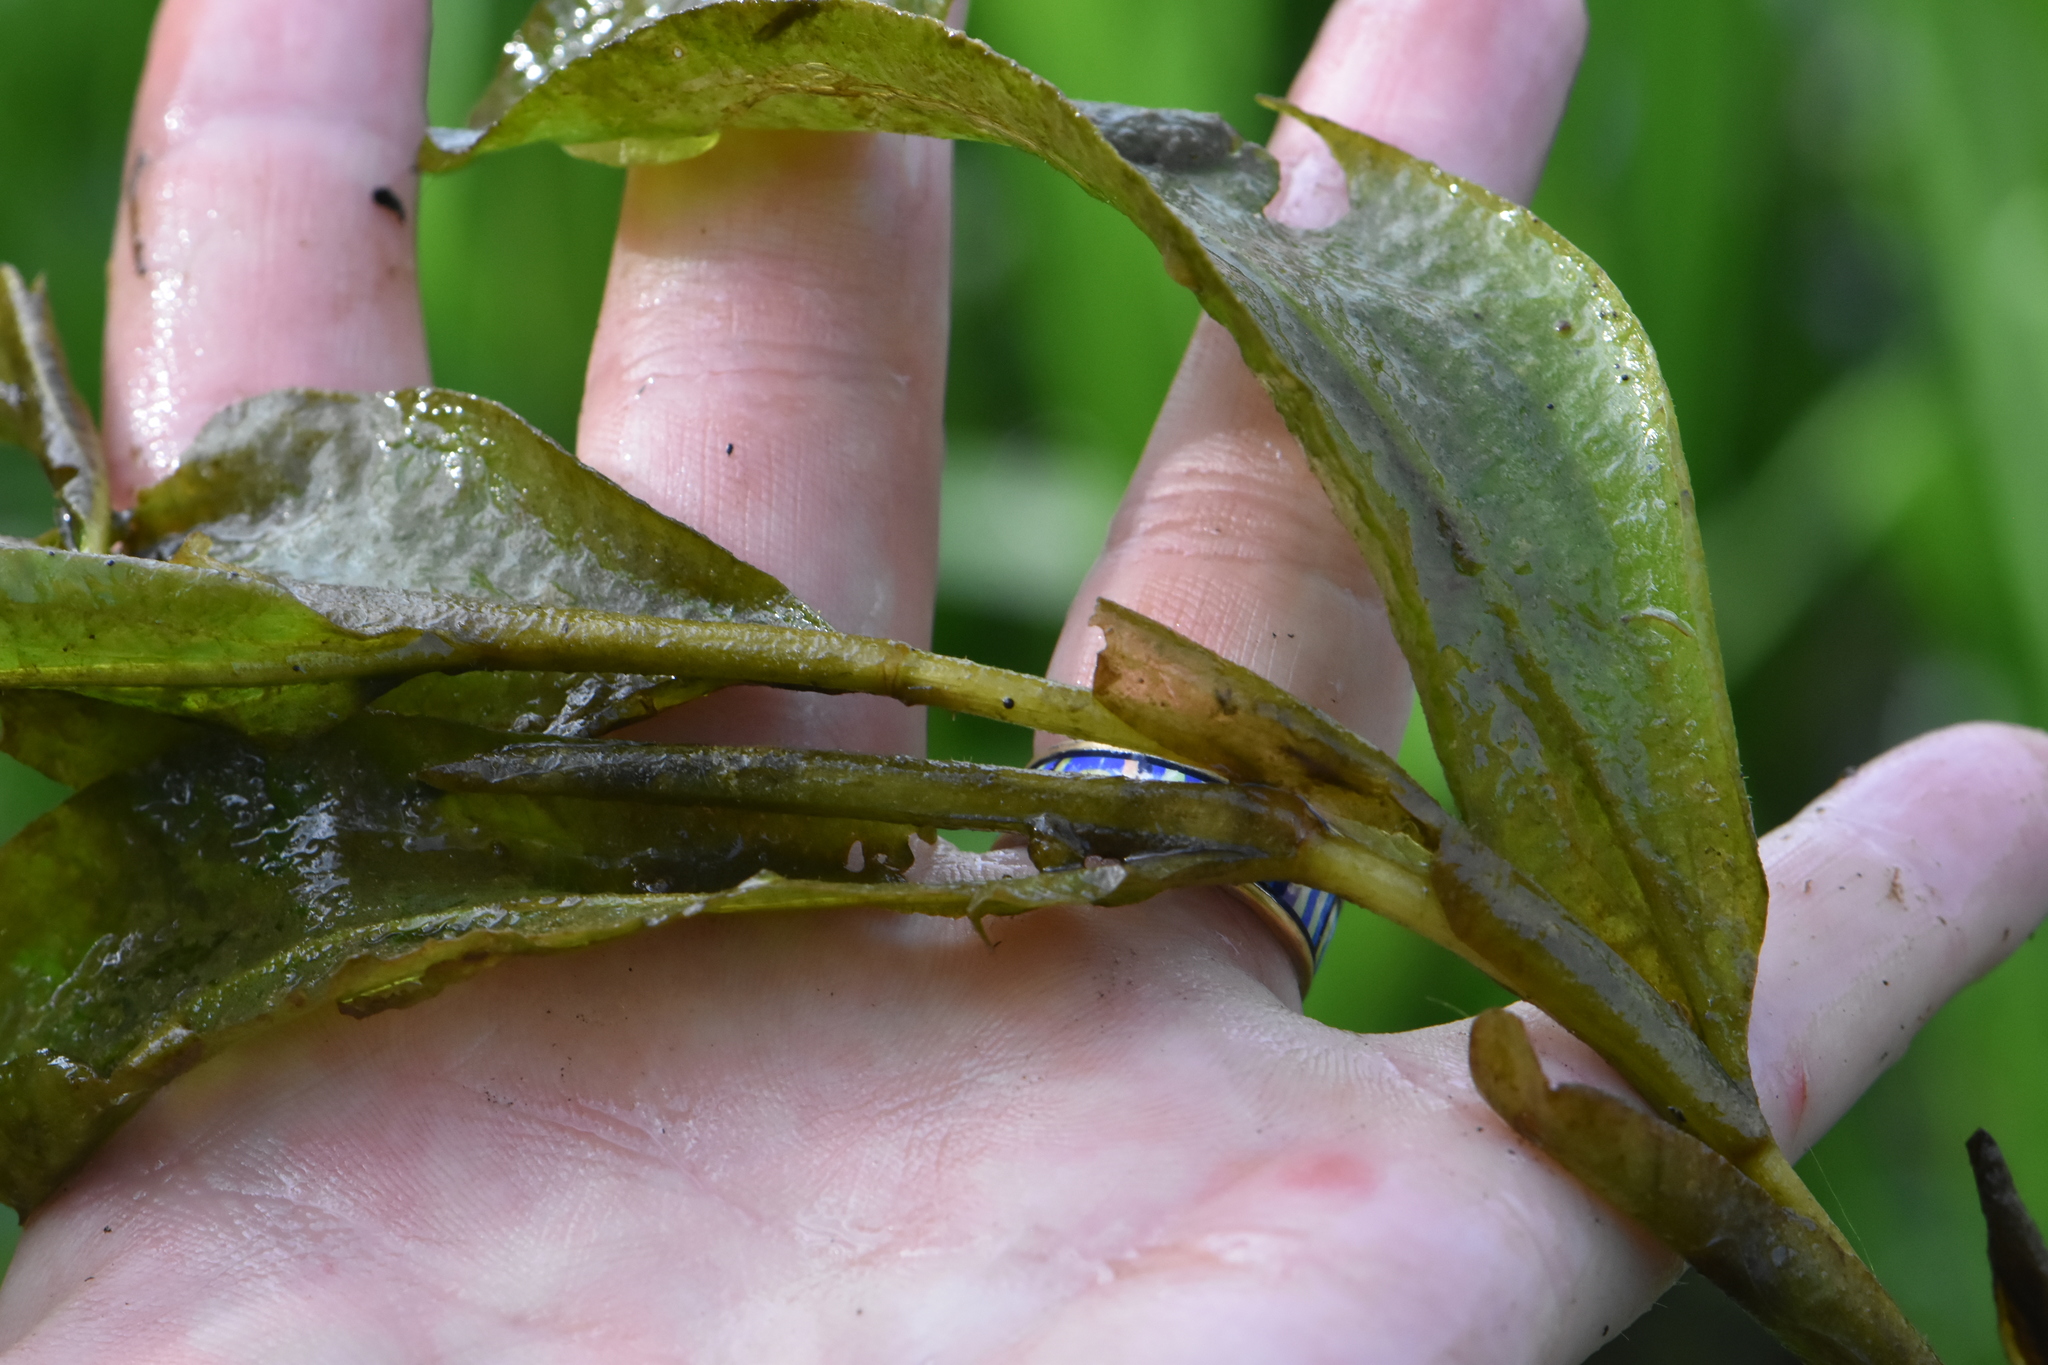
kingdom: Plantae
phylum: Tracheophyta
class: Liliopsida
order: Alismatales
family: Potamogetonaceae
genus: Potamogeton
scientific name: Potamogeton lucens
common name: Shining pondweed
